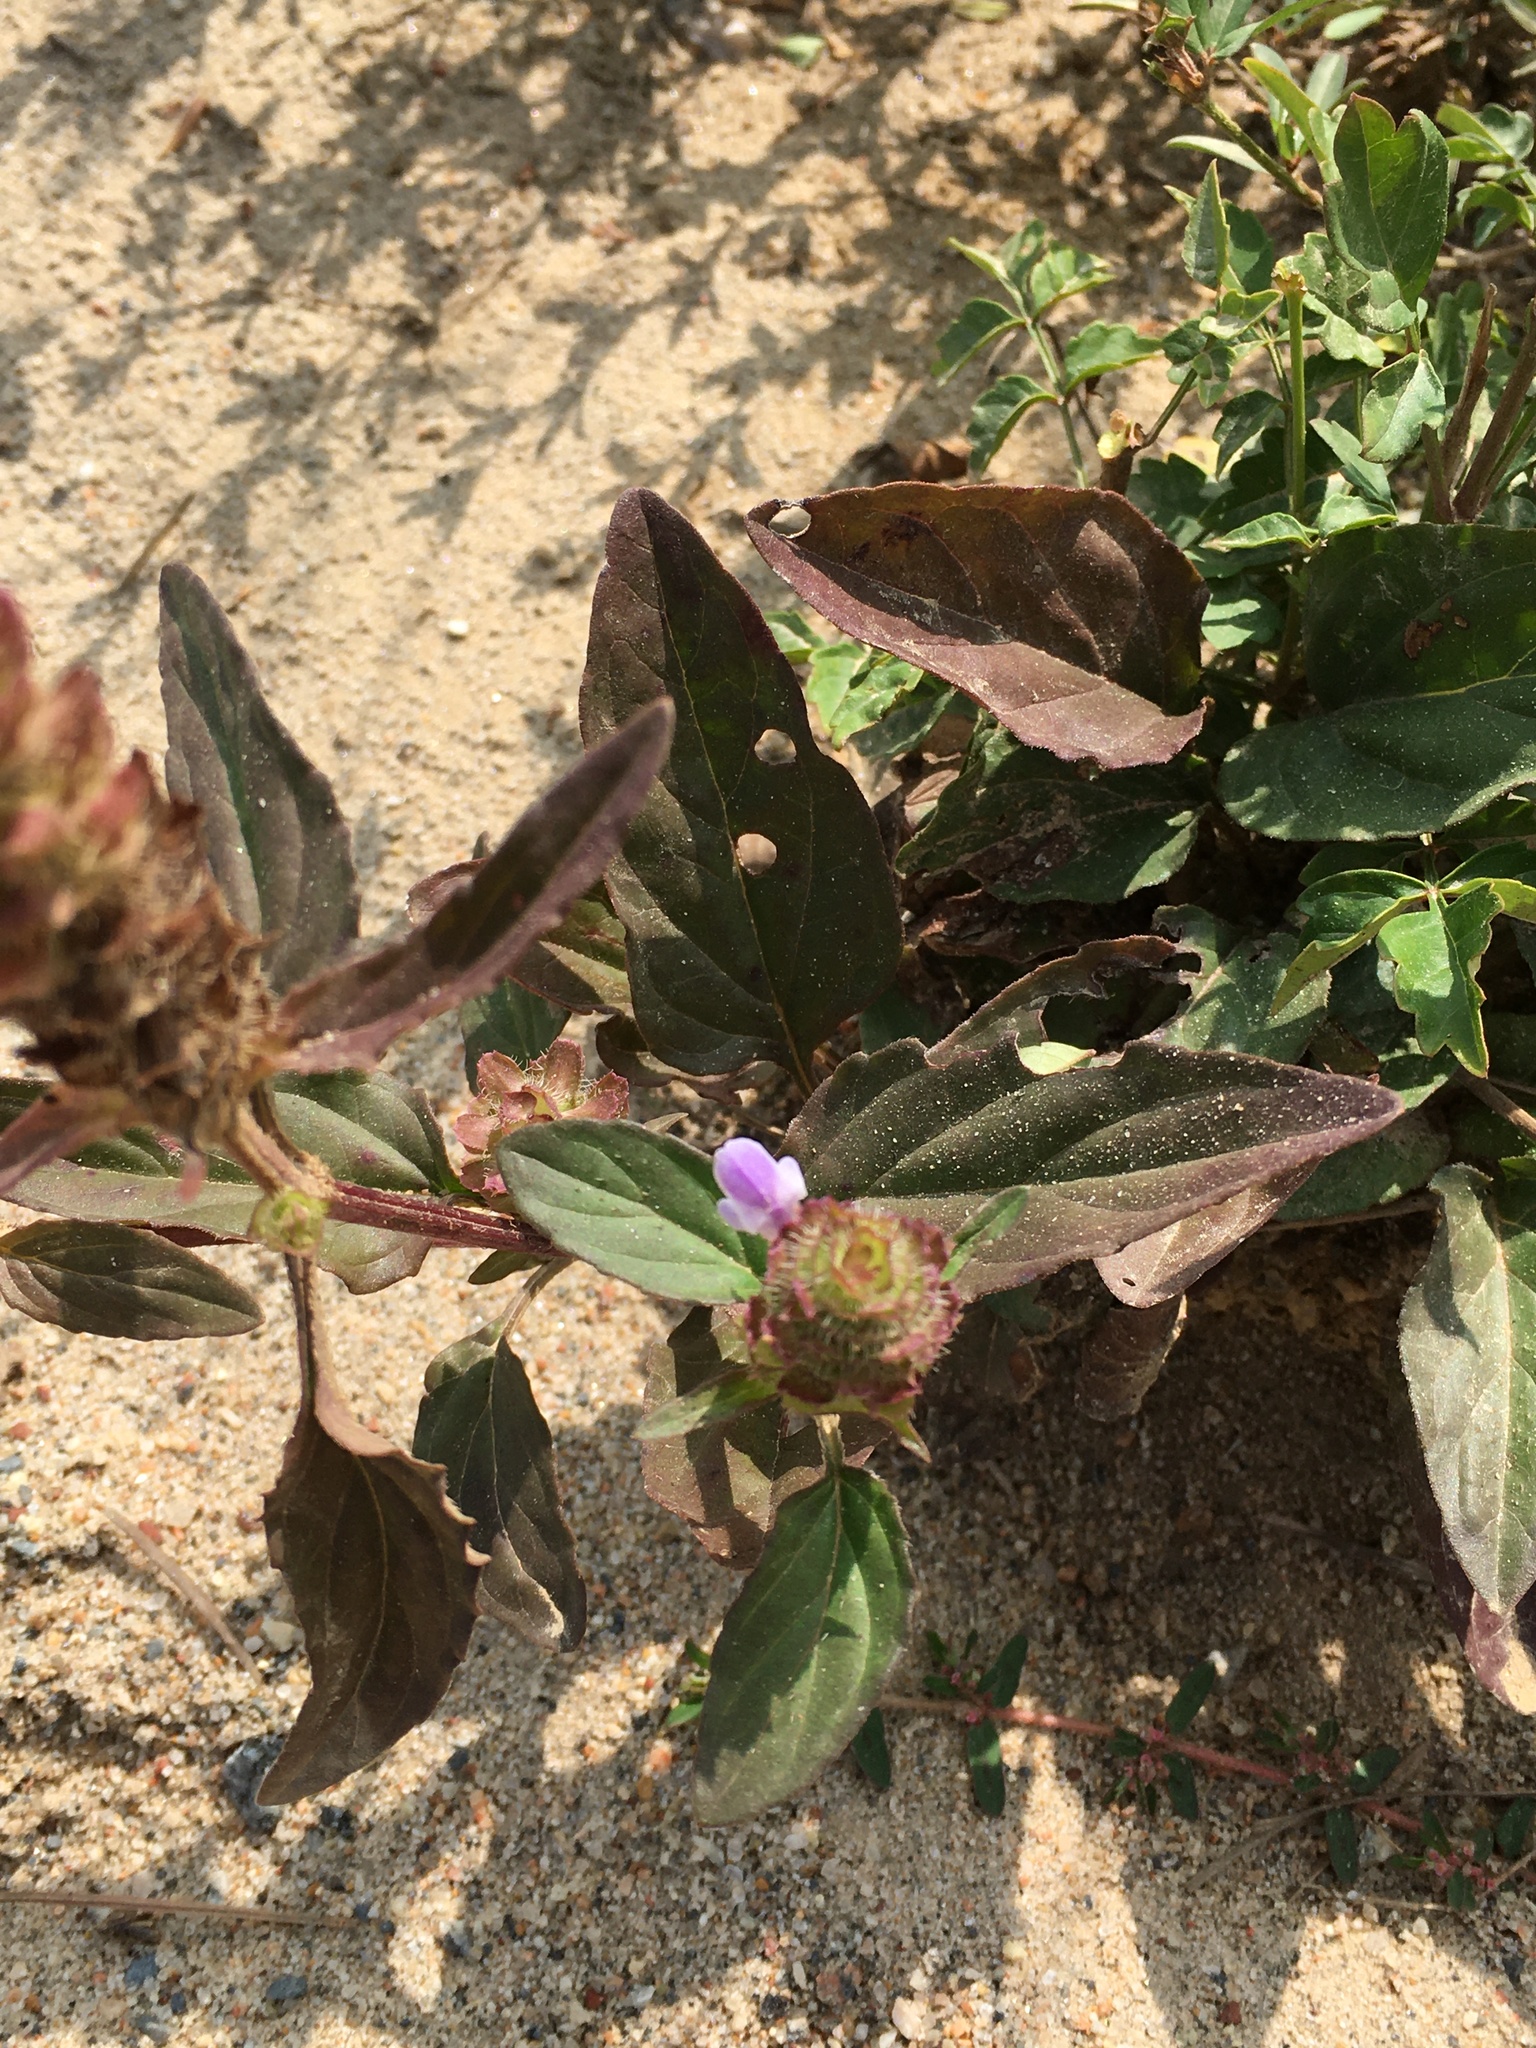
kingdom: Plantae
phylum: Tracheophyta
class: Magnoliopsida
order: Lamiales
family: Lamiaceae
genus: Prunella
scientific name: Prunella vulgaris
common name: Heal-all
